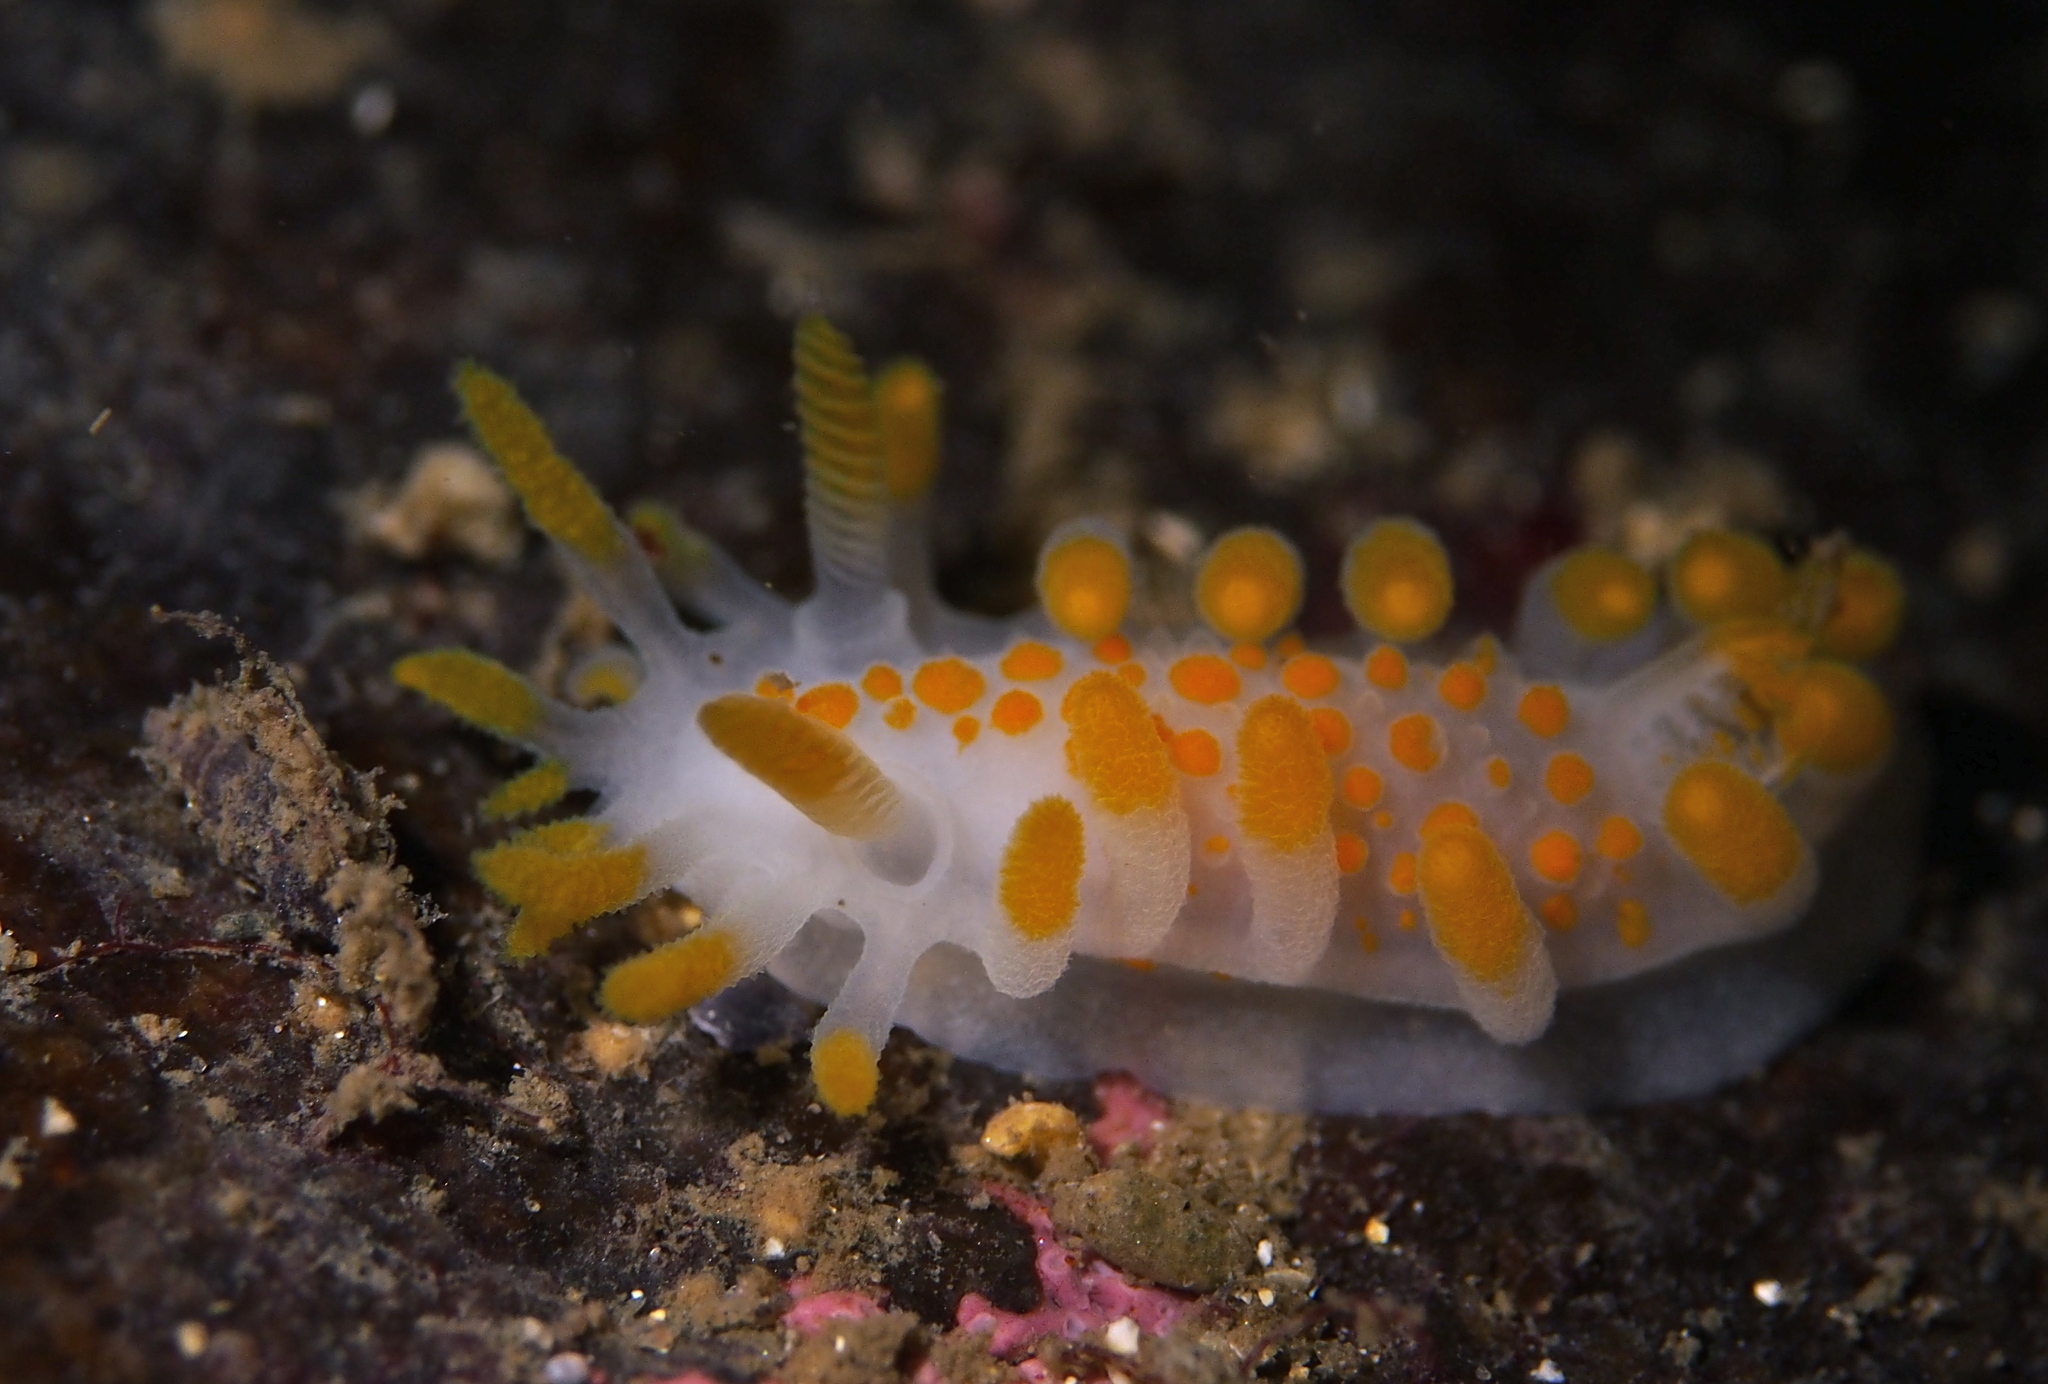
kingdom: Animalia
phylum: Mollusca
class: Gastropoda
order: Nudibranchia
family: Polyceridae
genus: Limacia
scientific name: Limacia clavigera
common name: Orange-clubbed sea slug
